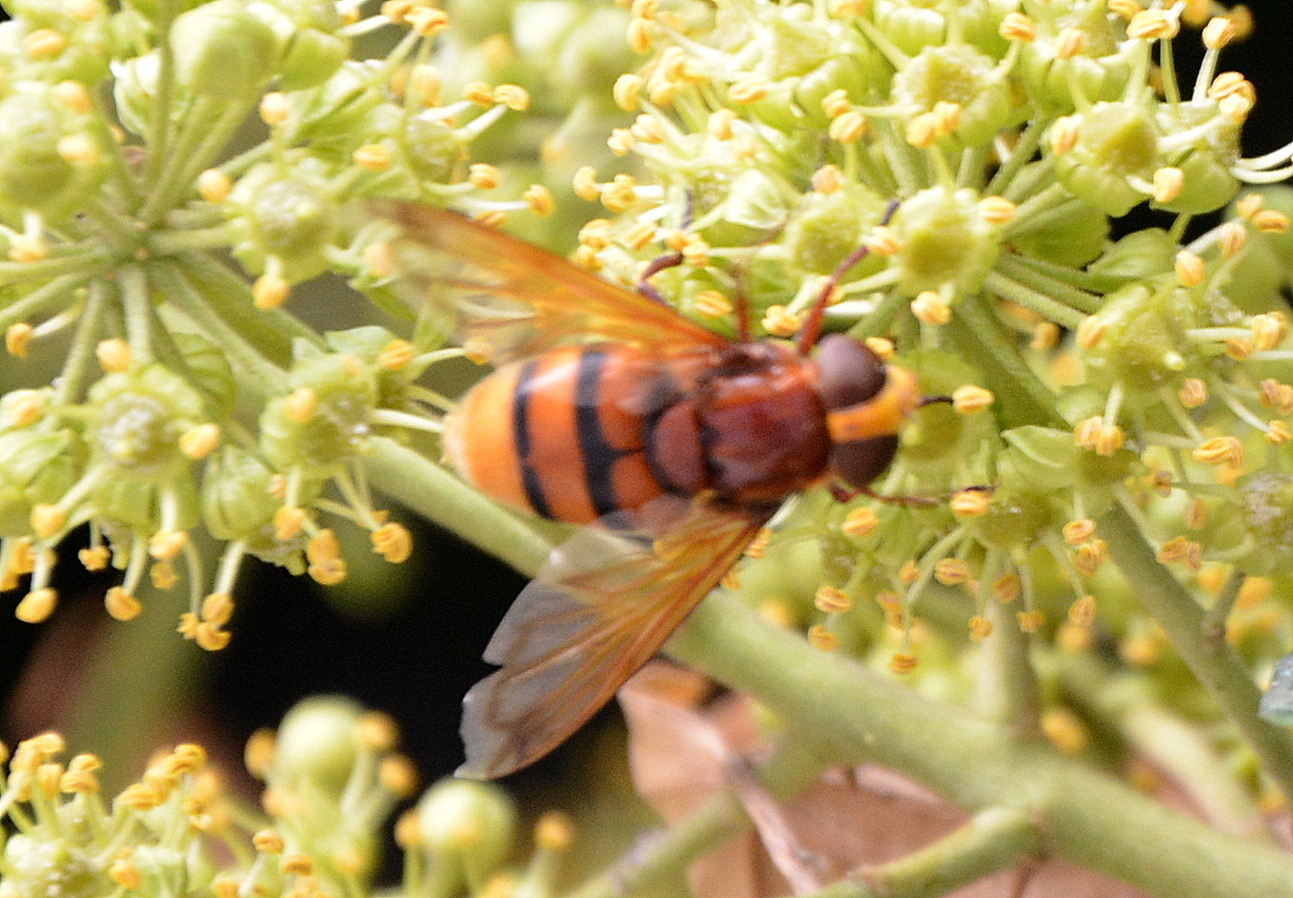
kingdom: Animalia
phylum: Arthropoda
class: Insecta
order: Diptera
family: Syrphidae
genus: Volucella
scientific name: Volucella zonaria
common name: Hornet hoverfly
